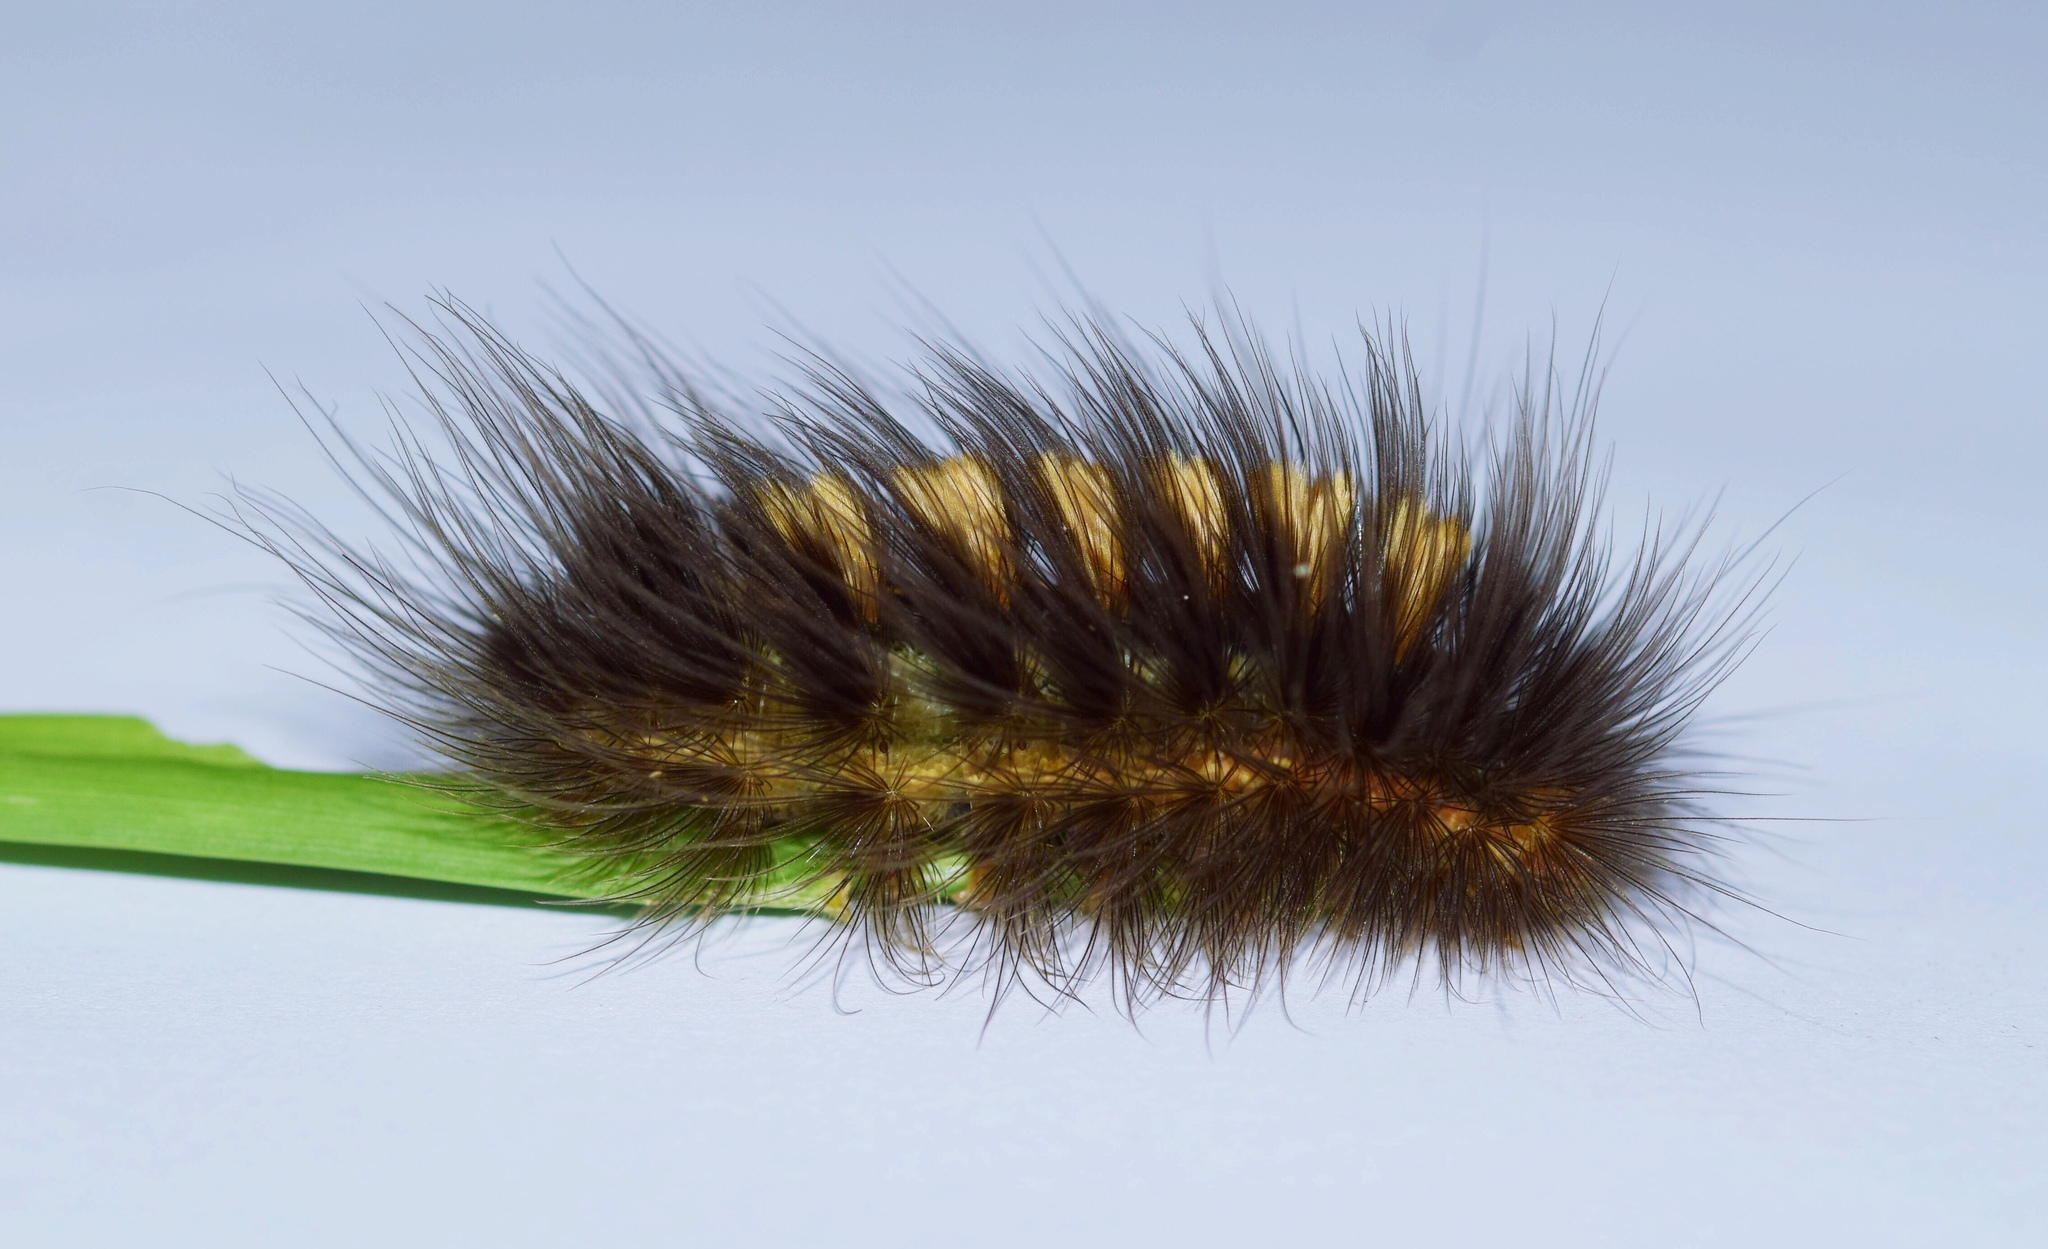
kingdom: Animalia
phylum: Arthropoda
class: Insecta
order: Lepidoptera
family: Erebidae
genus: Aroa
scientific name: Aroa discalis
